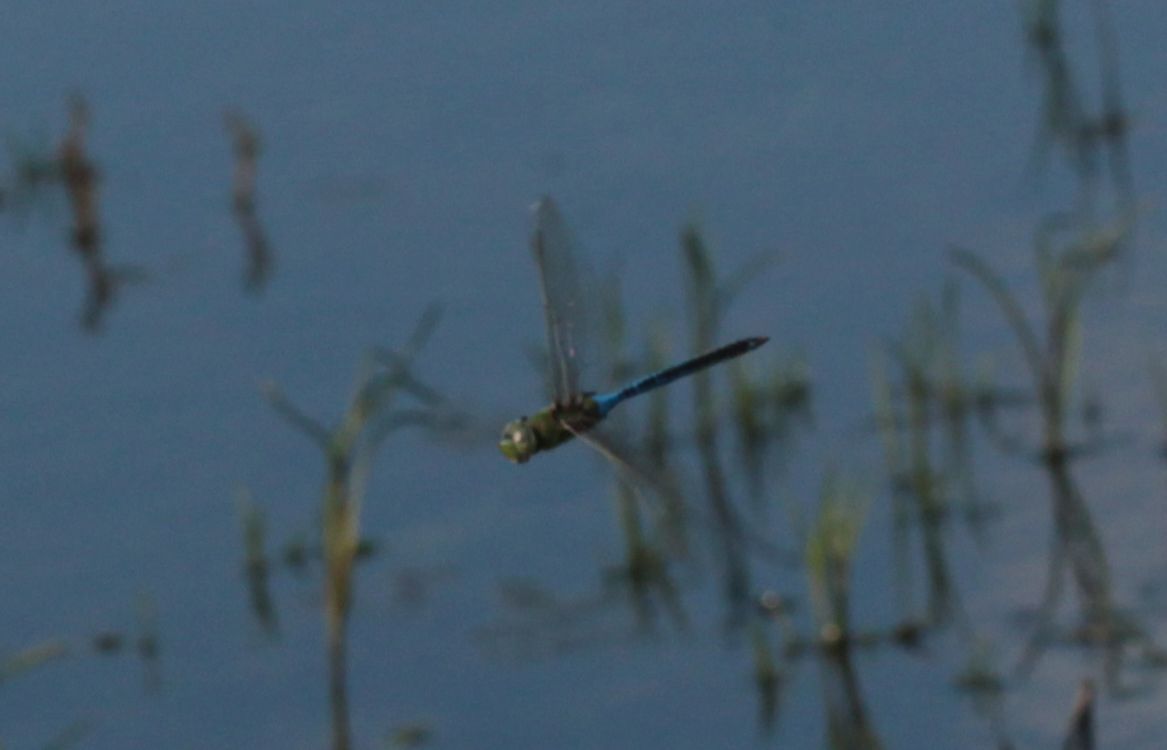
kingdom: Animalia
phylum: Arthropoda
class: Insecta
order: Odonata
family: Aeshnidae
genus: Anax
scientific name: Anax junius
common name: Common green darner
